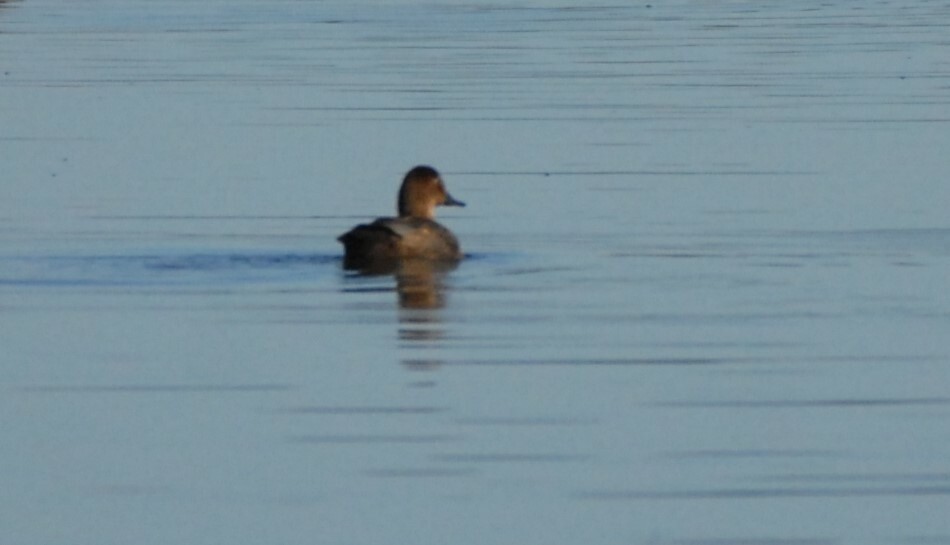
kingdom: Animalia
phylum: Chordata
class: Aves
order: Anseriformes
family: Anatidae
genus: Aythya
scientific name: Aythya ferina
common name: Common pochard
